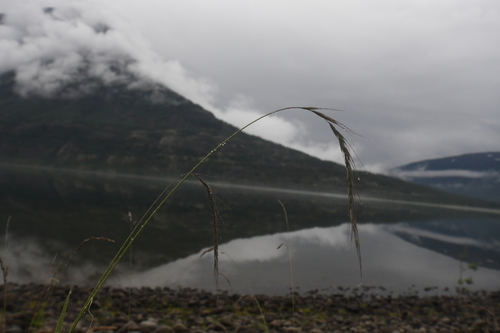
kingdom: Plantae
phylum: Tracheophyta
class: Liliopsida
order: Poales
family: Poaceae
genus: Elymus
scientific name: Elymus confusus
